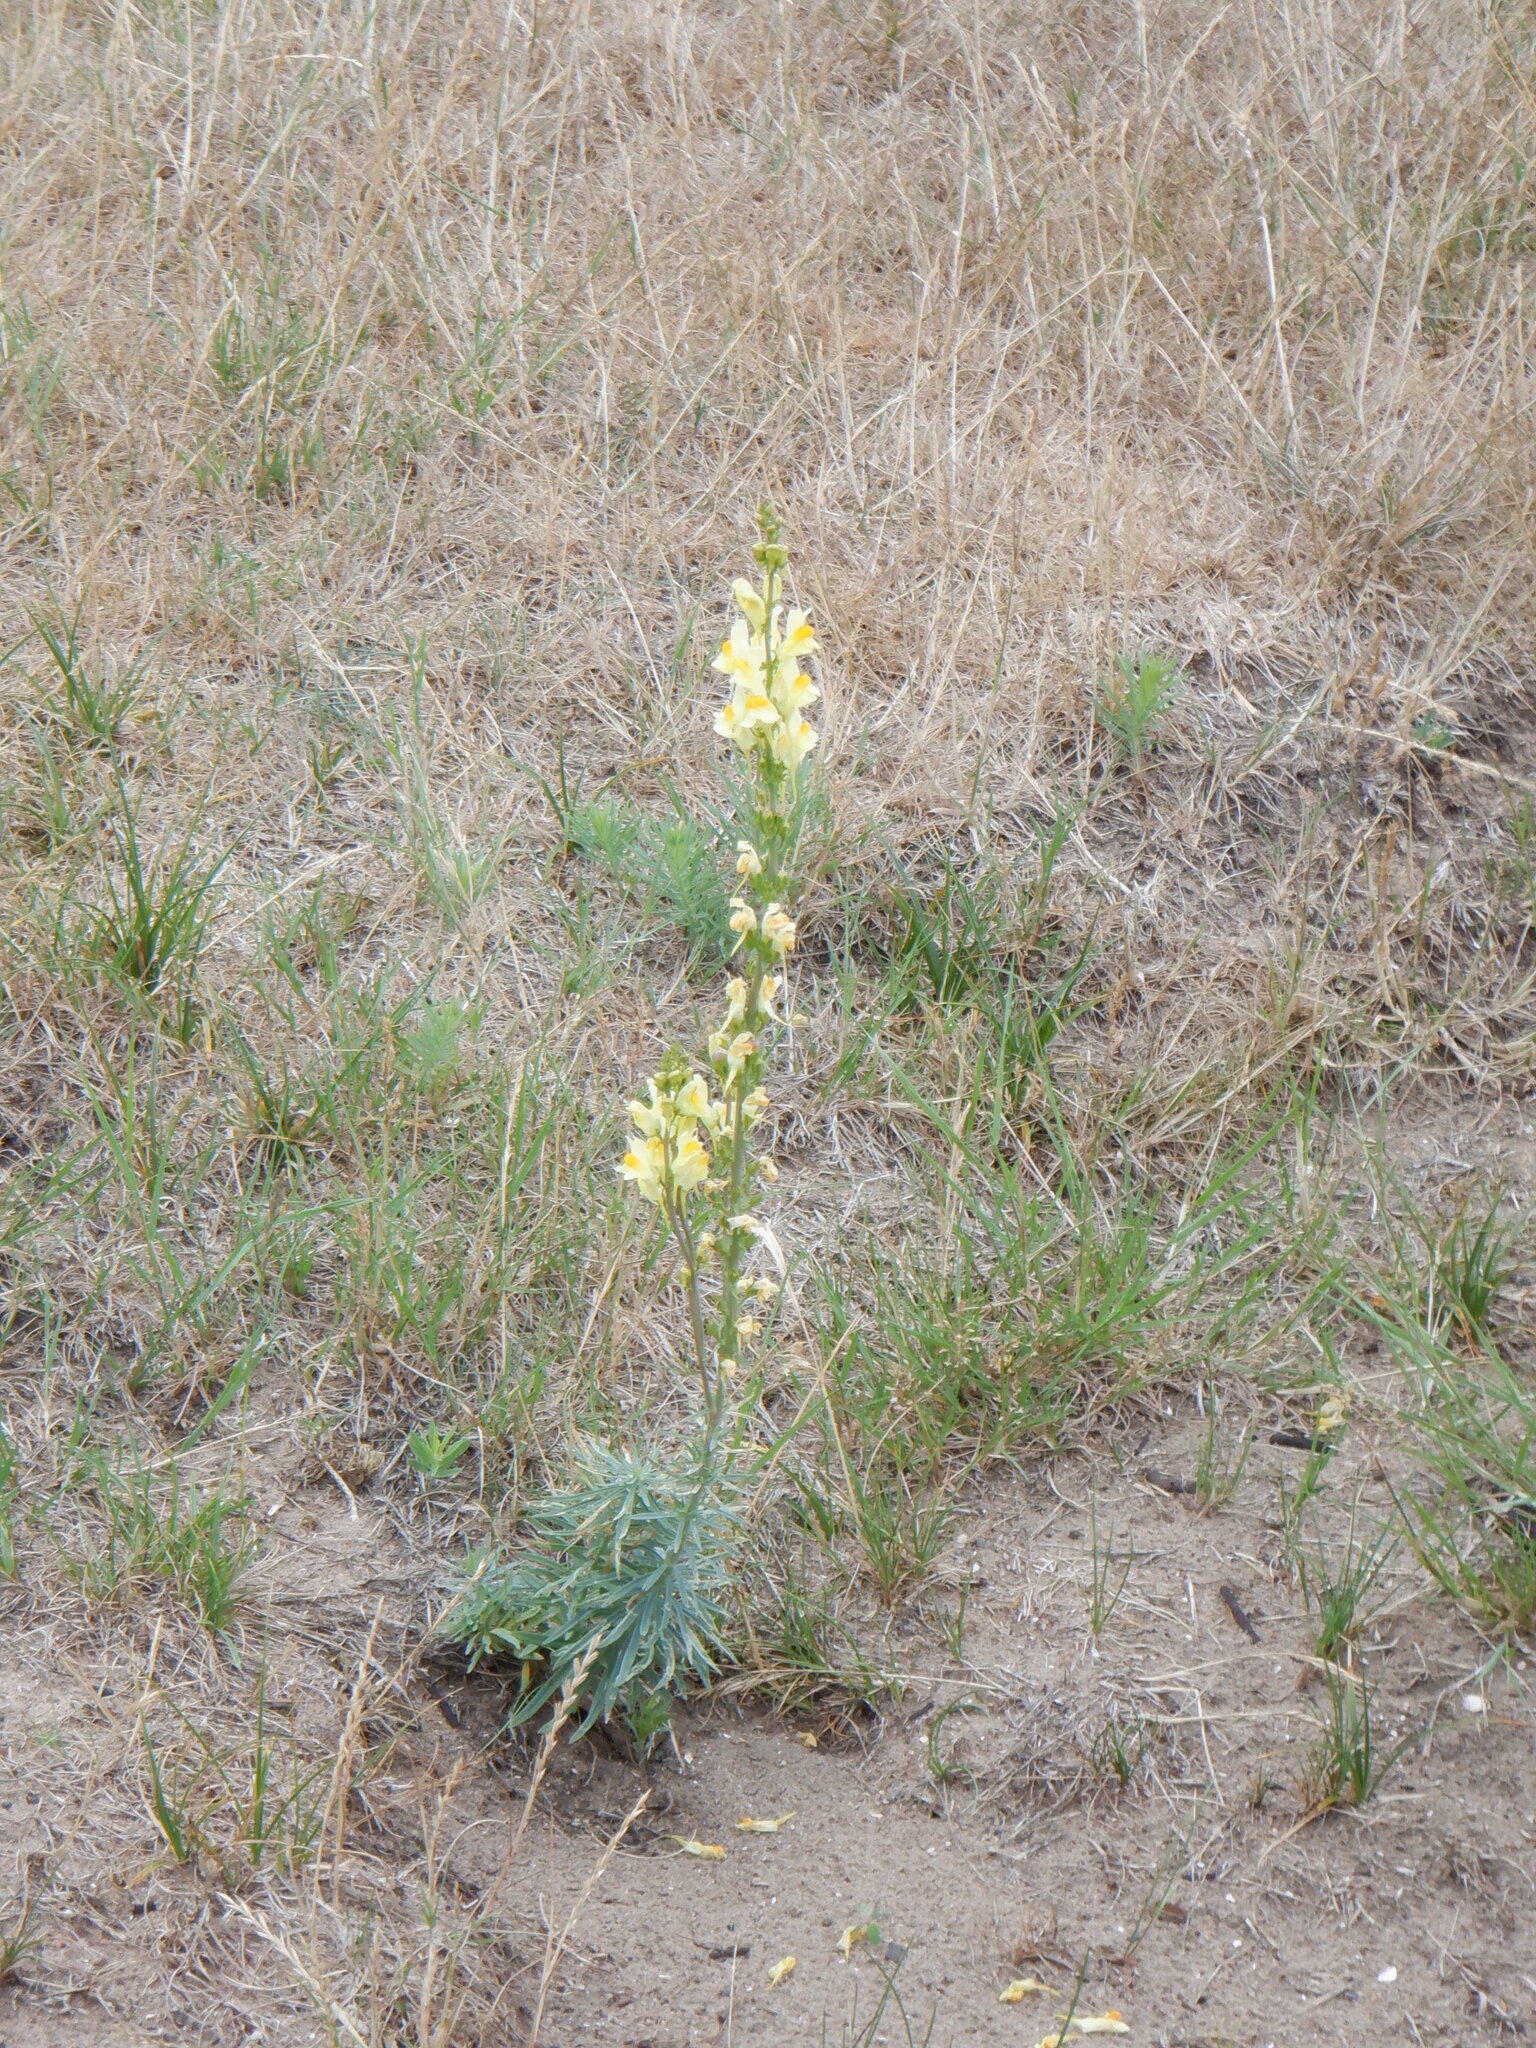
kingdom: Plantae
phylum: Tracheophyta
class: Magnoliopsida
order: Lamiales
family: Plantaginaceae
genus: Linaria
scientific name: Linaria vulgaris
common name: Butter and eggs
